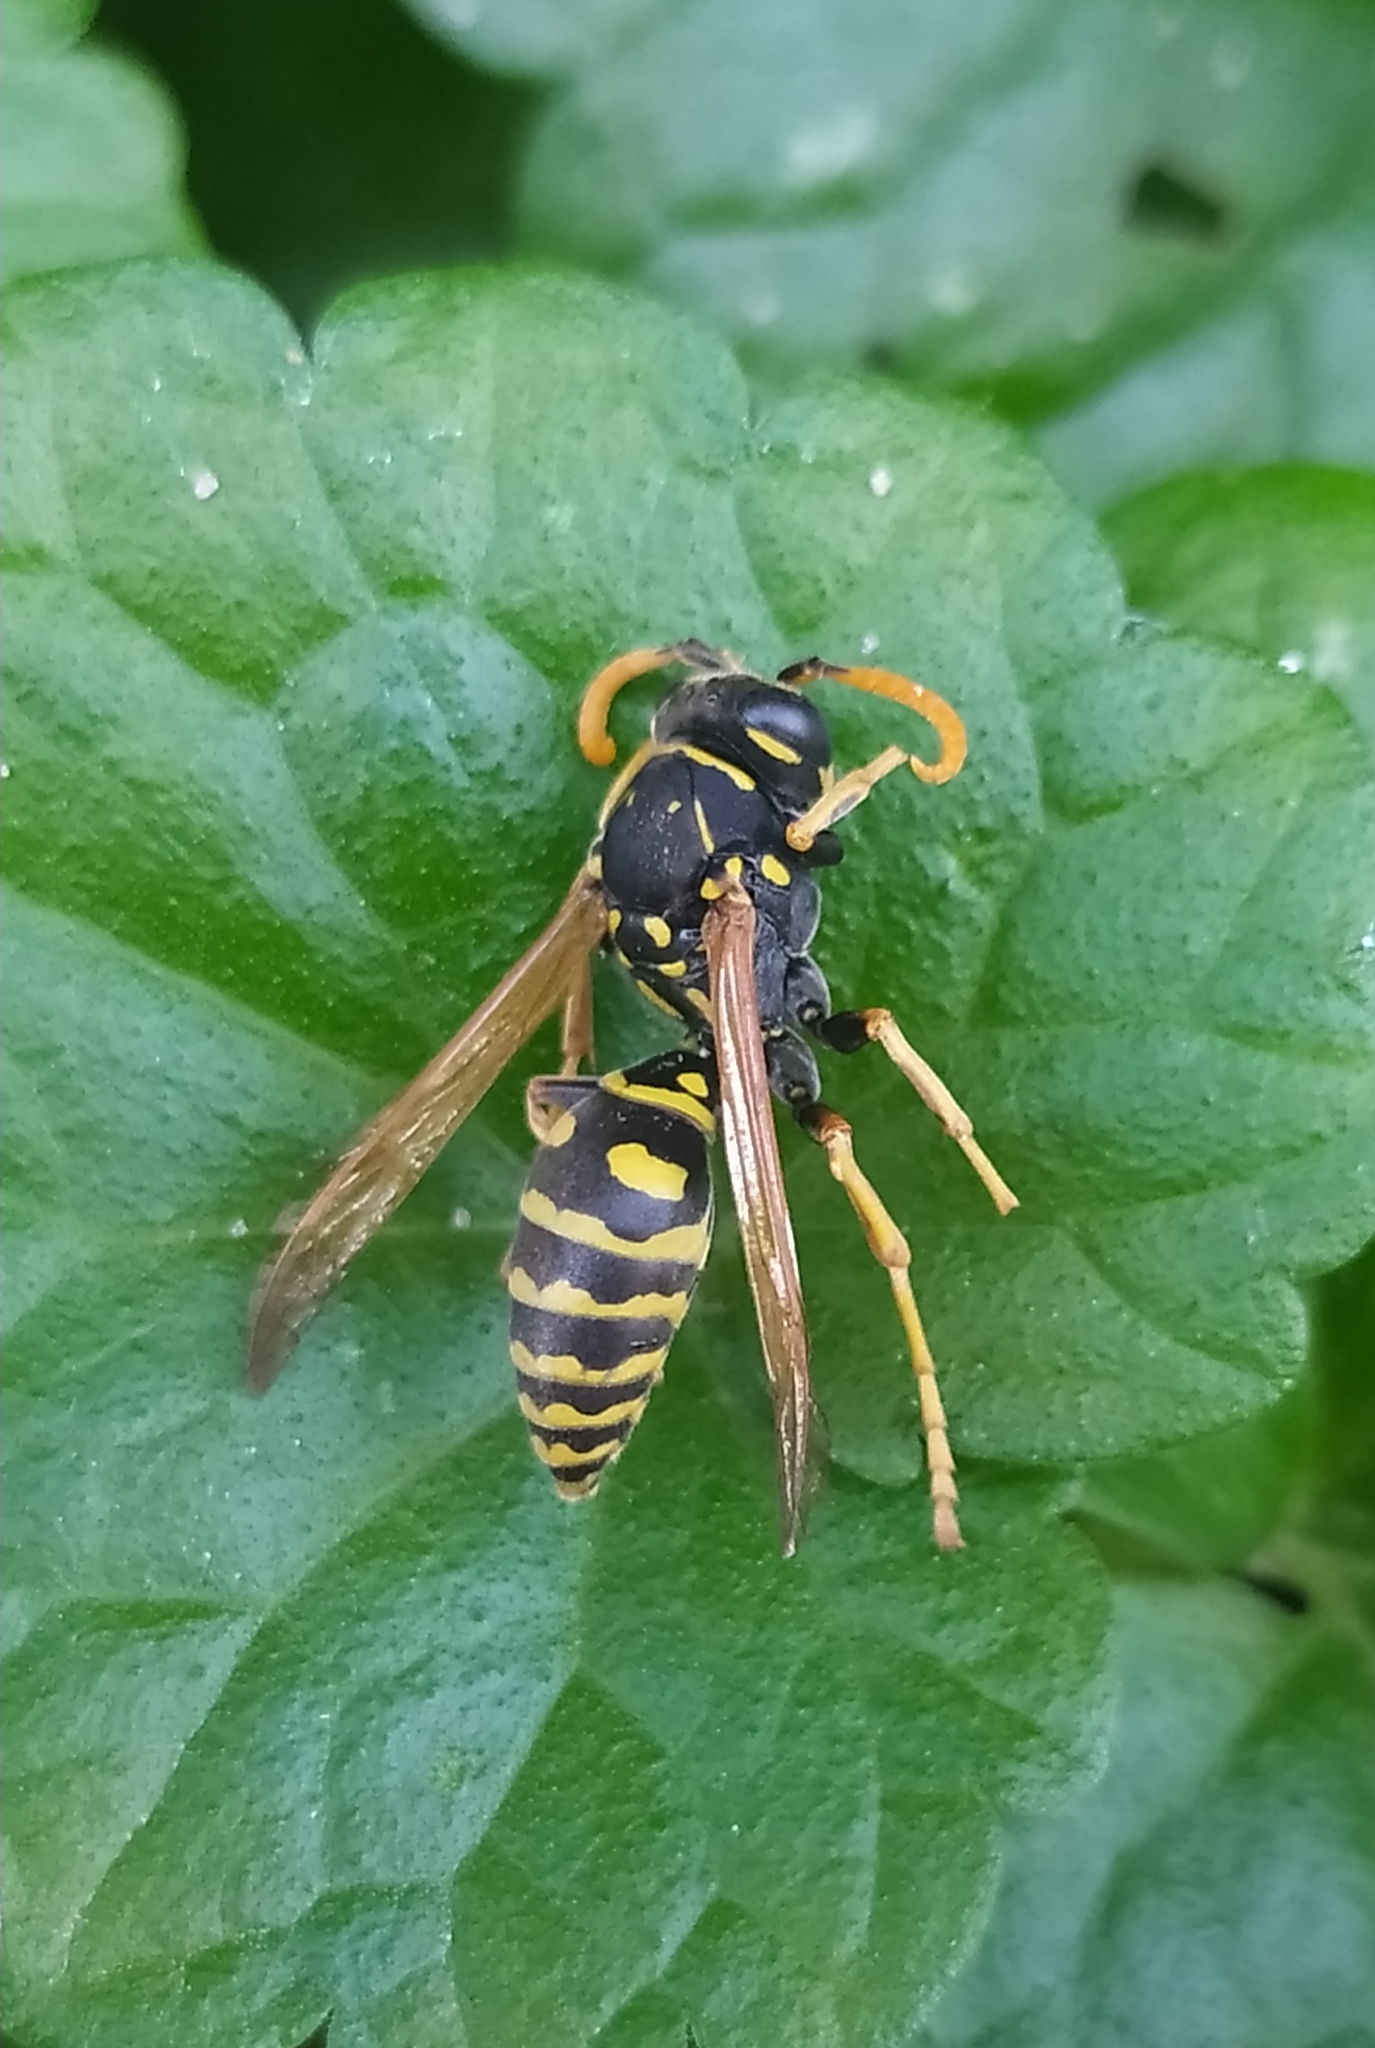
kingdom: Animalia
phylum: Arthropoda
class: Insecta
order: Hymenoptera
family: Eumenidae
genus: Polistes
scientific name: Polistes dominula
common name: Paper wasp
